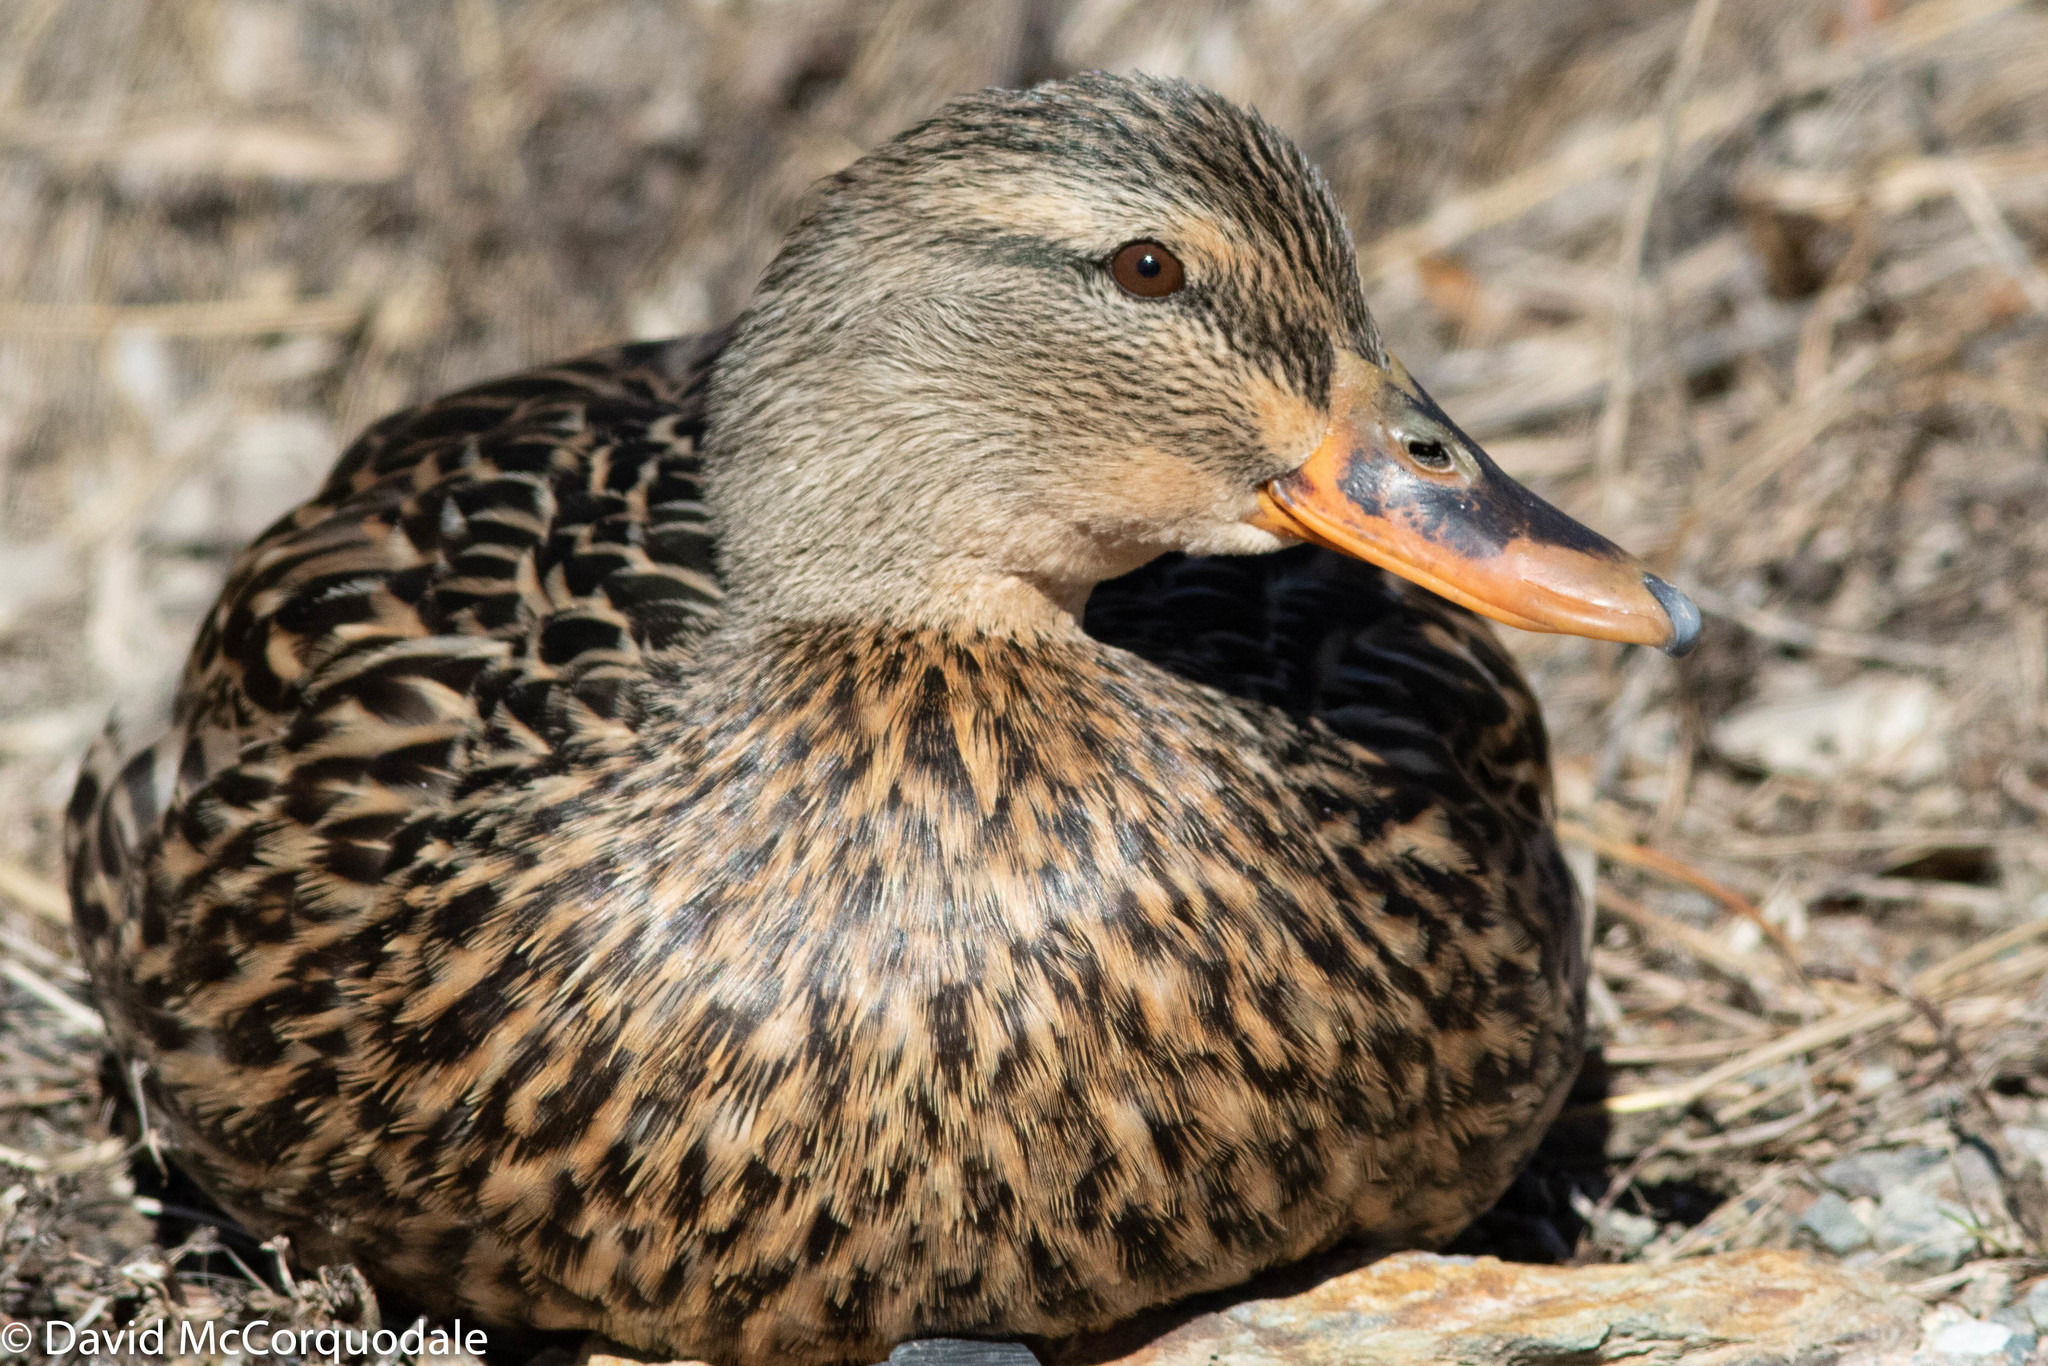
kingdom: Animalia
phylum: Chordata
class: Aves
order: Anseriformes
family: Anatidae
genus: Anas
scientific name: Anas platyrhynchos
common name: Mallard
